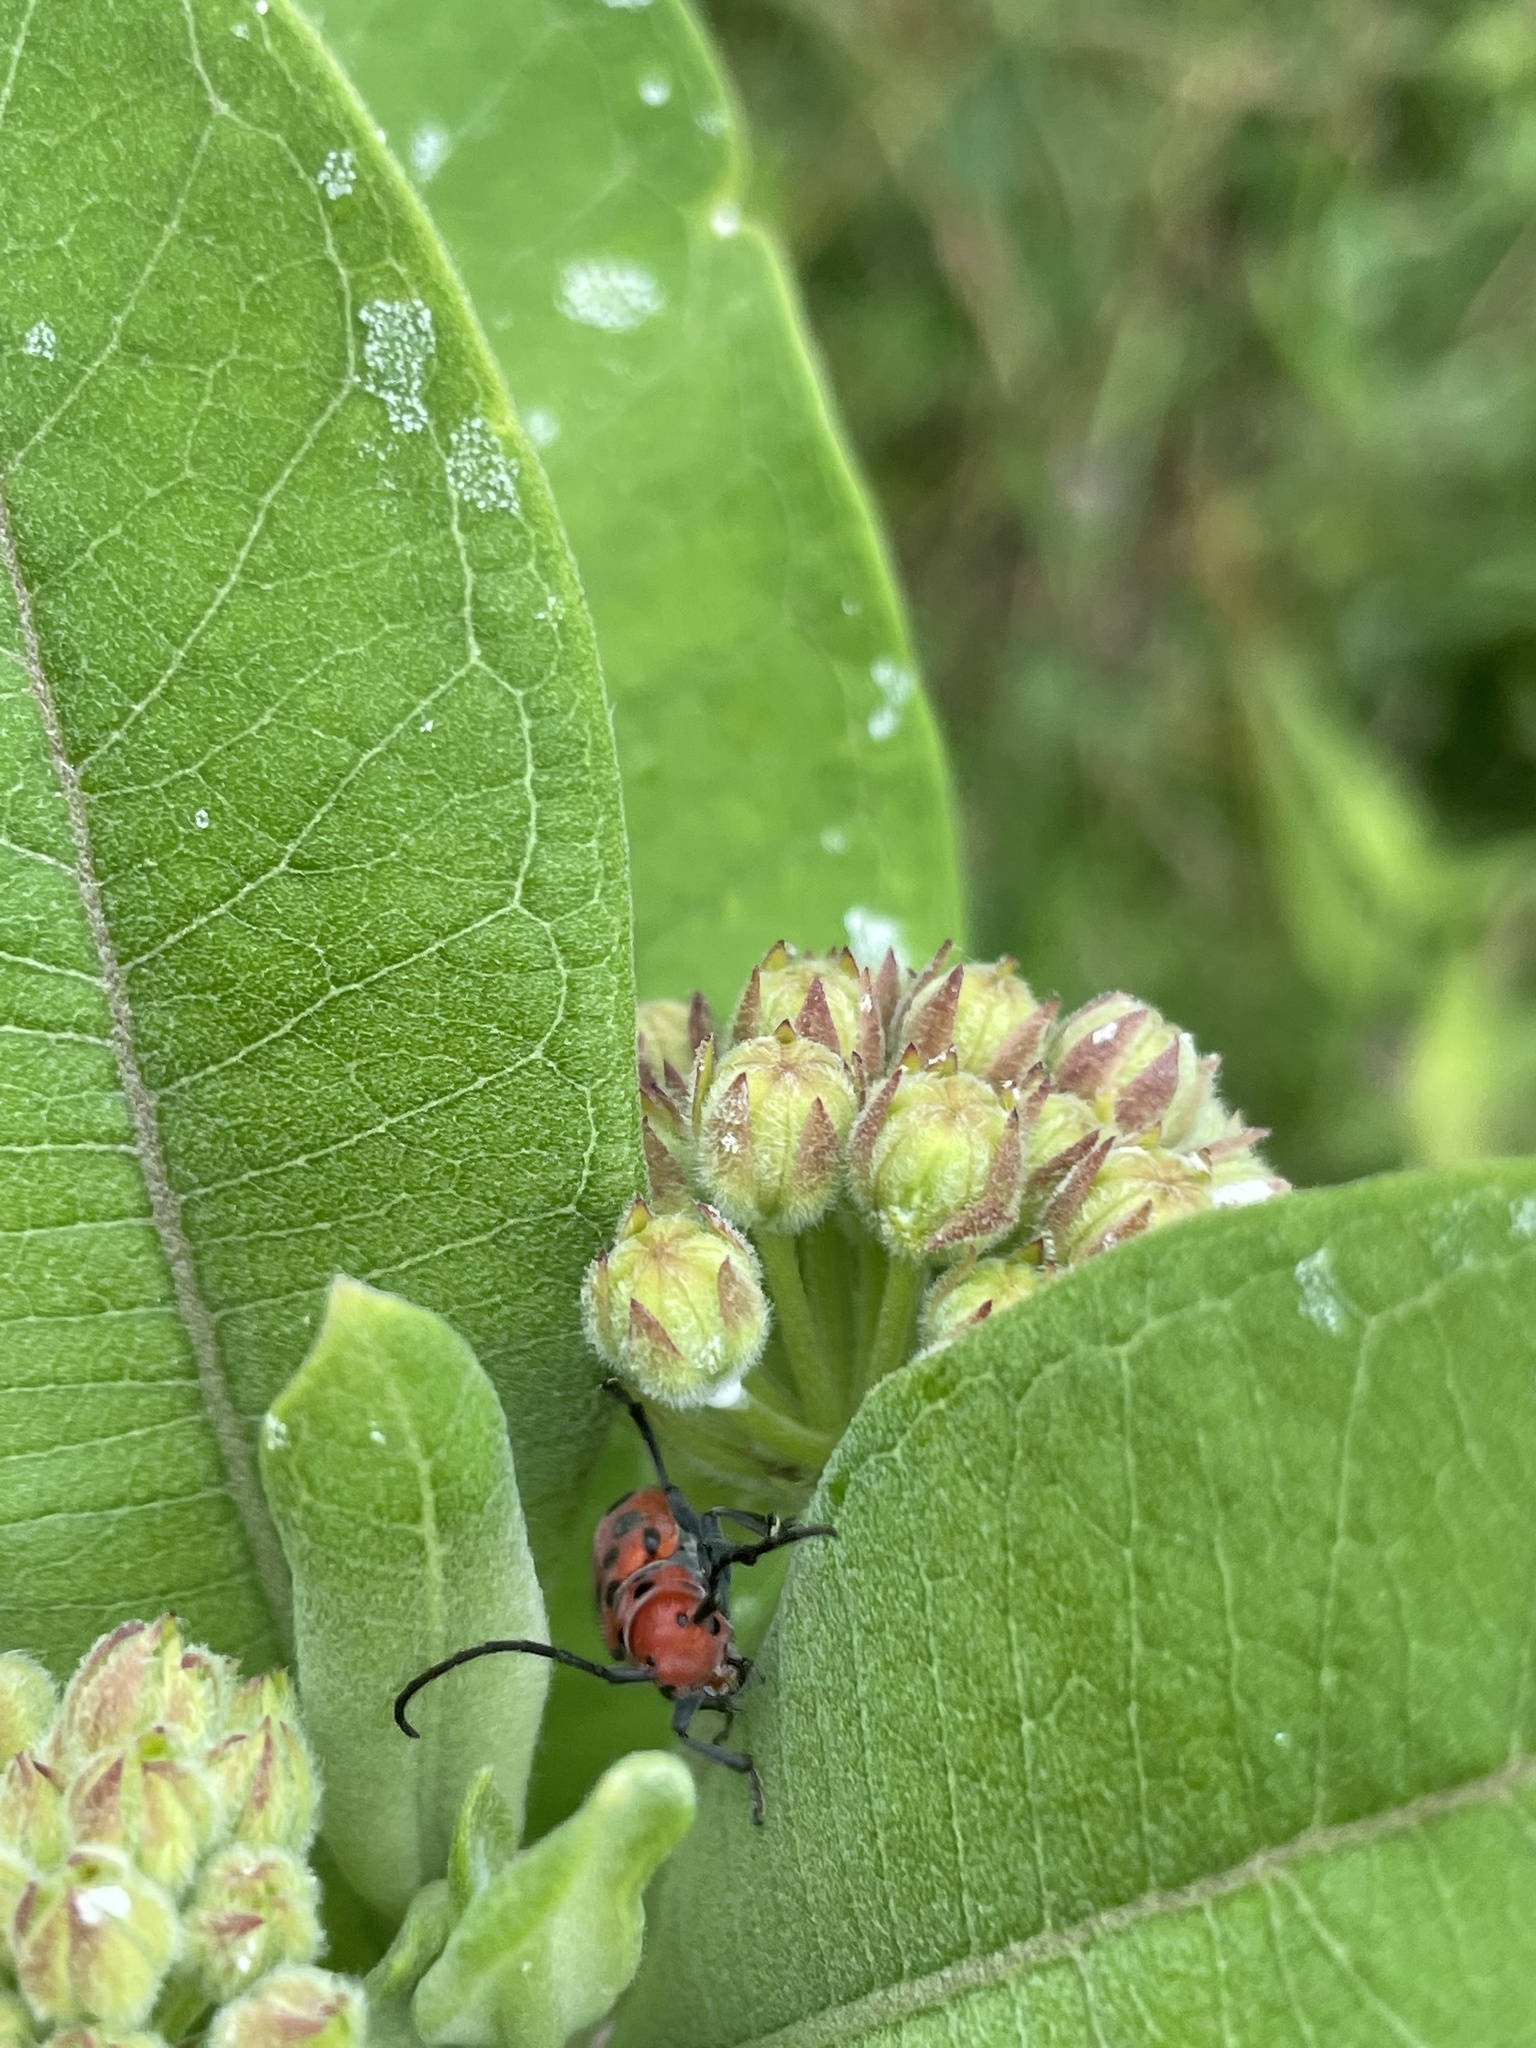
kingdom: Animalia
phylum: Arthropoda
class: Insecta
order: Coleoptera
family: Cerambycidae
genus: Tetraopes
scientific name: Tetraopes tetrophthalmus
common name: Red milkweed beetle
